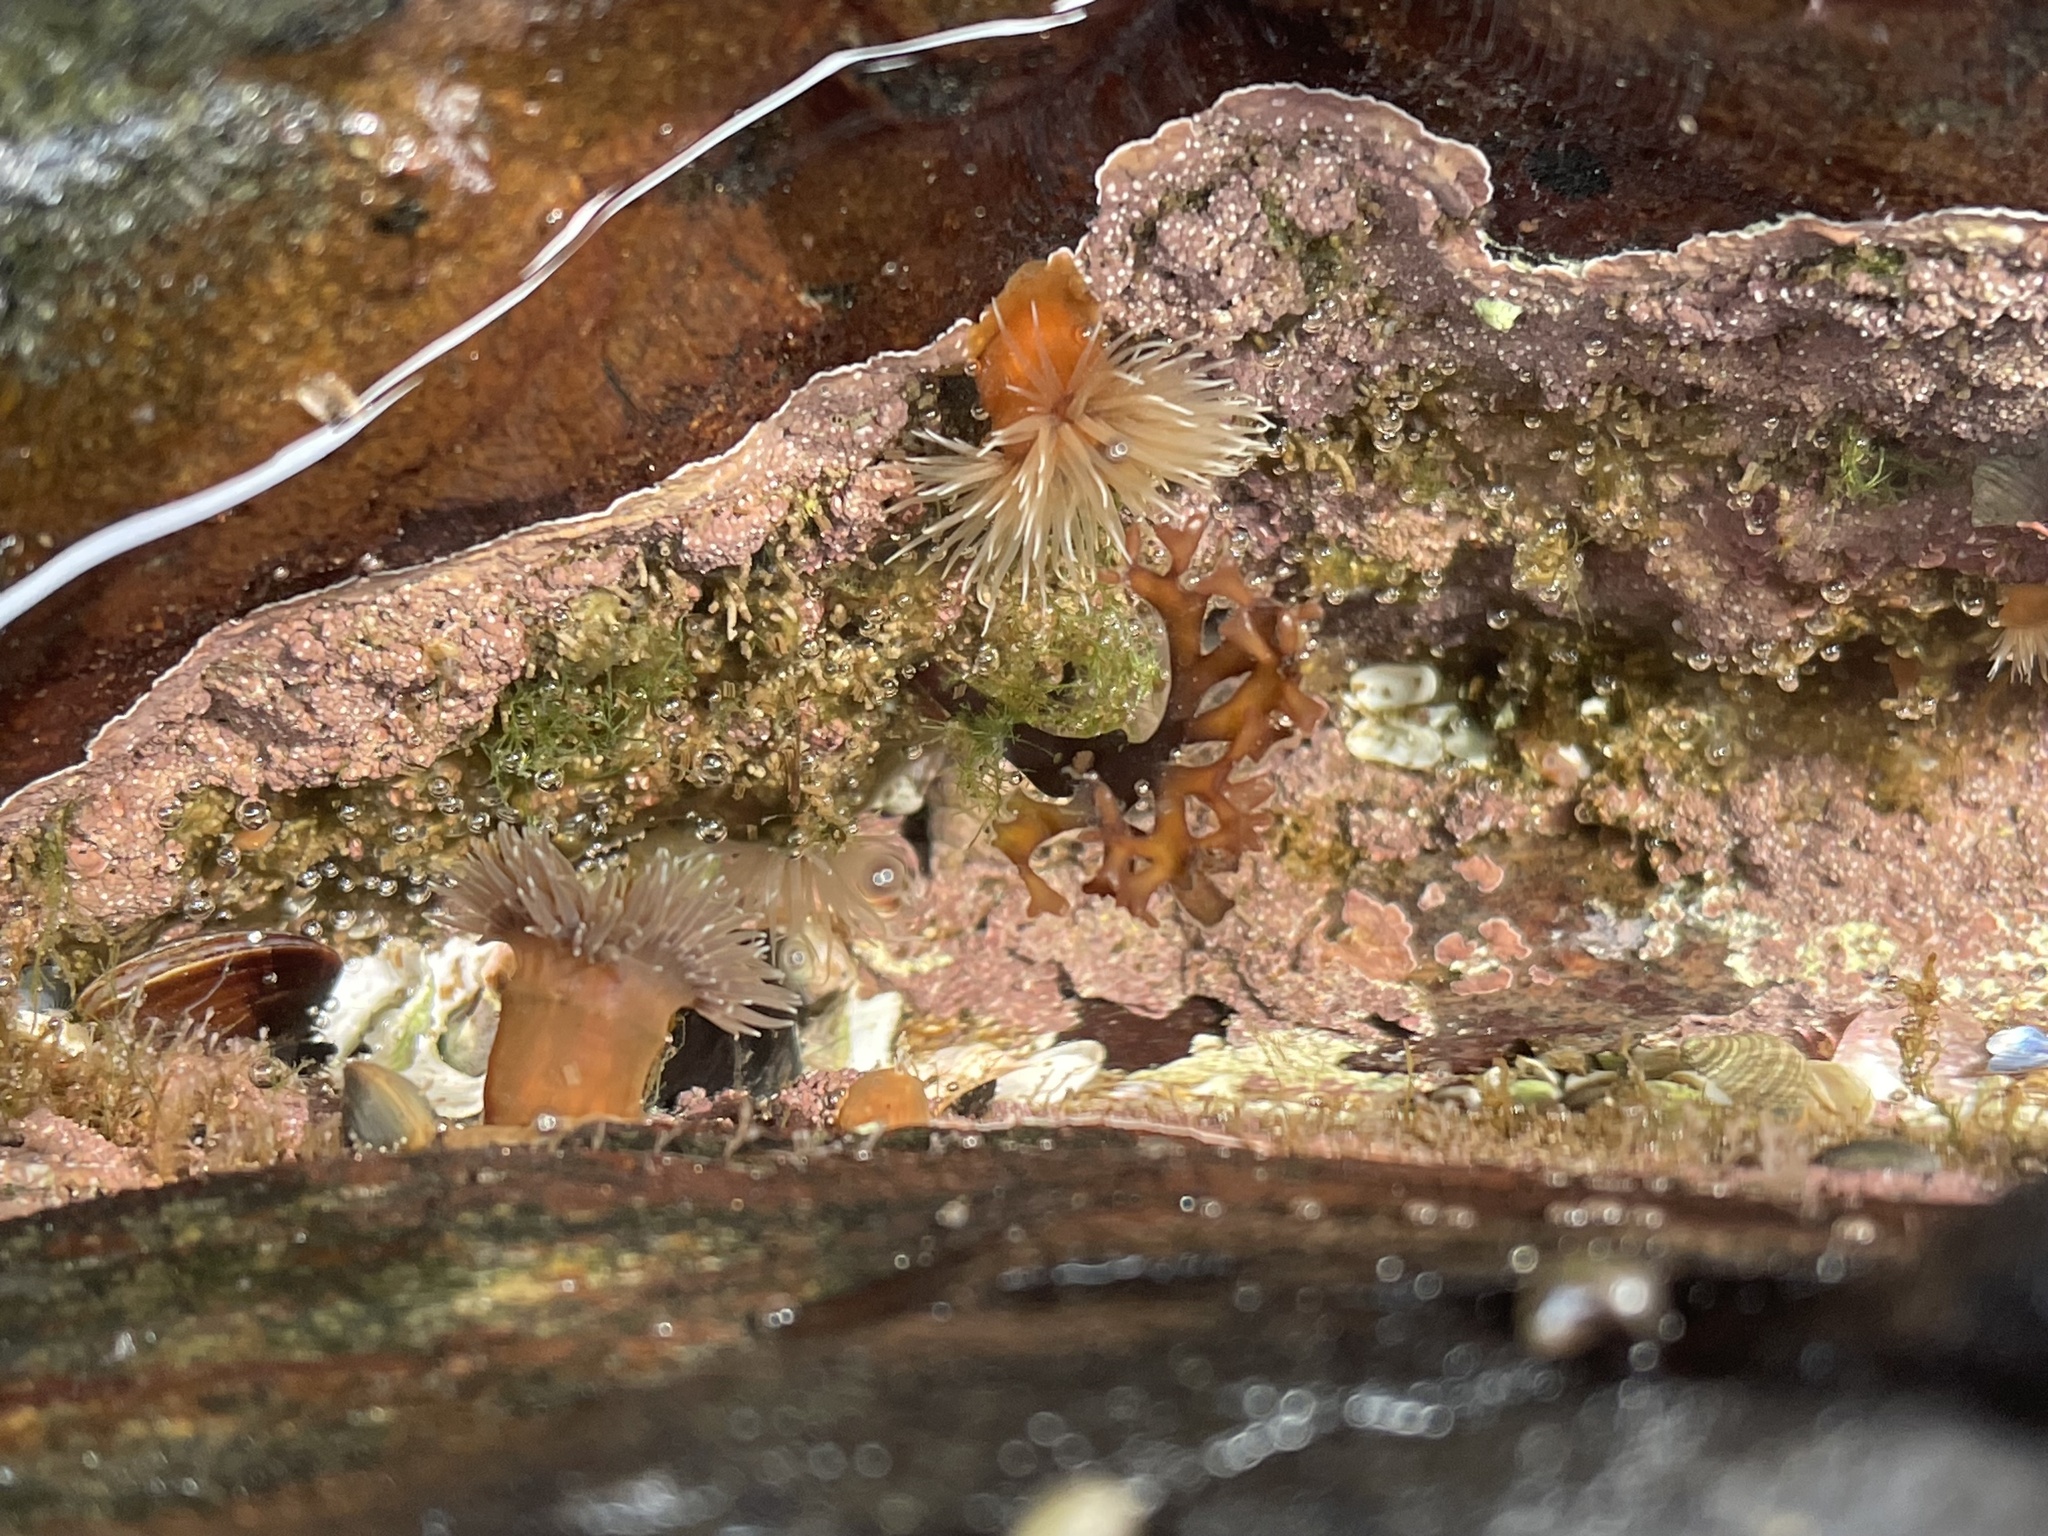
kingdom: Animalia
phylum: Cnidaria
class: Anthozoa
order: Actiniaria
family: Metridiidae
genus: Metridium
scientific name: Metridium senile
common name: Clonal plumose anemone
